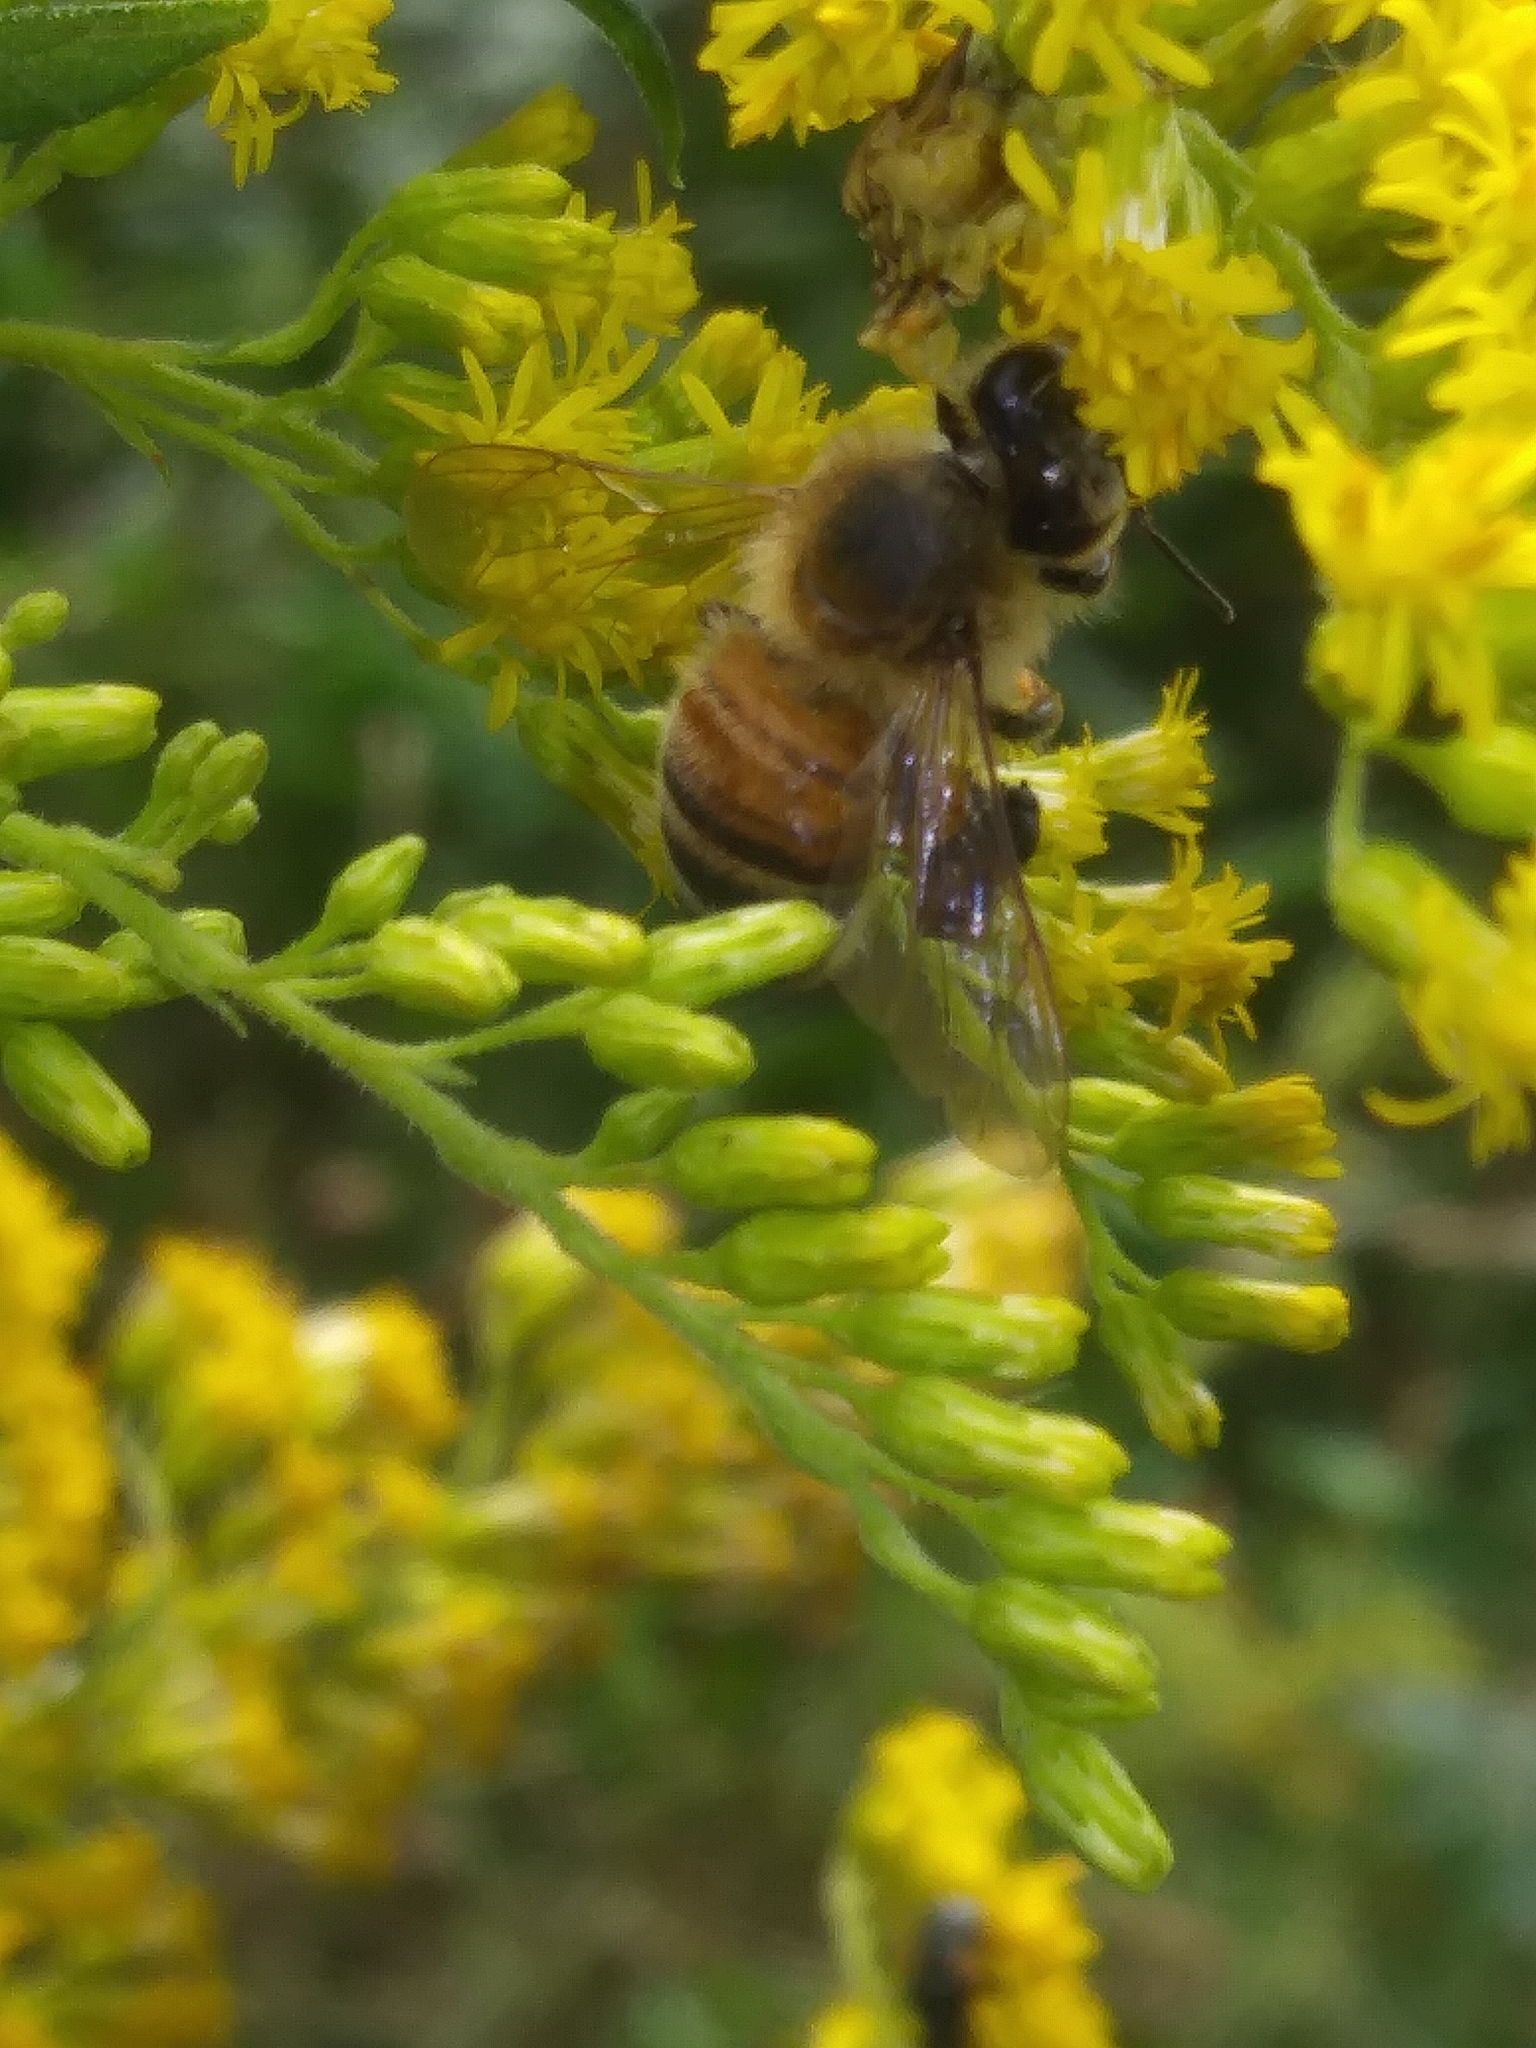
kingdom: Animalia
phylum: Arthropoda
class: Insecta
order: Hymenoptera
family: Apidae
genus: Apis
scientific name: Apis mellifera
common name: Honey bee
